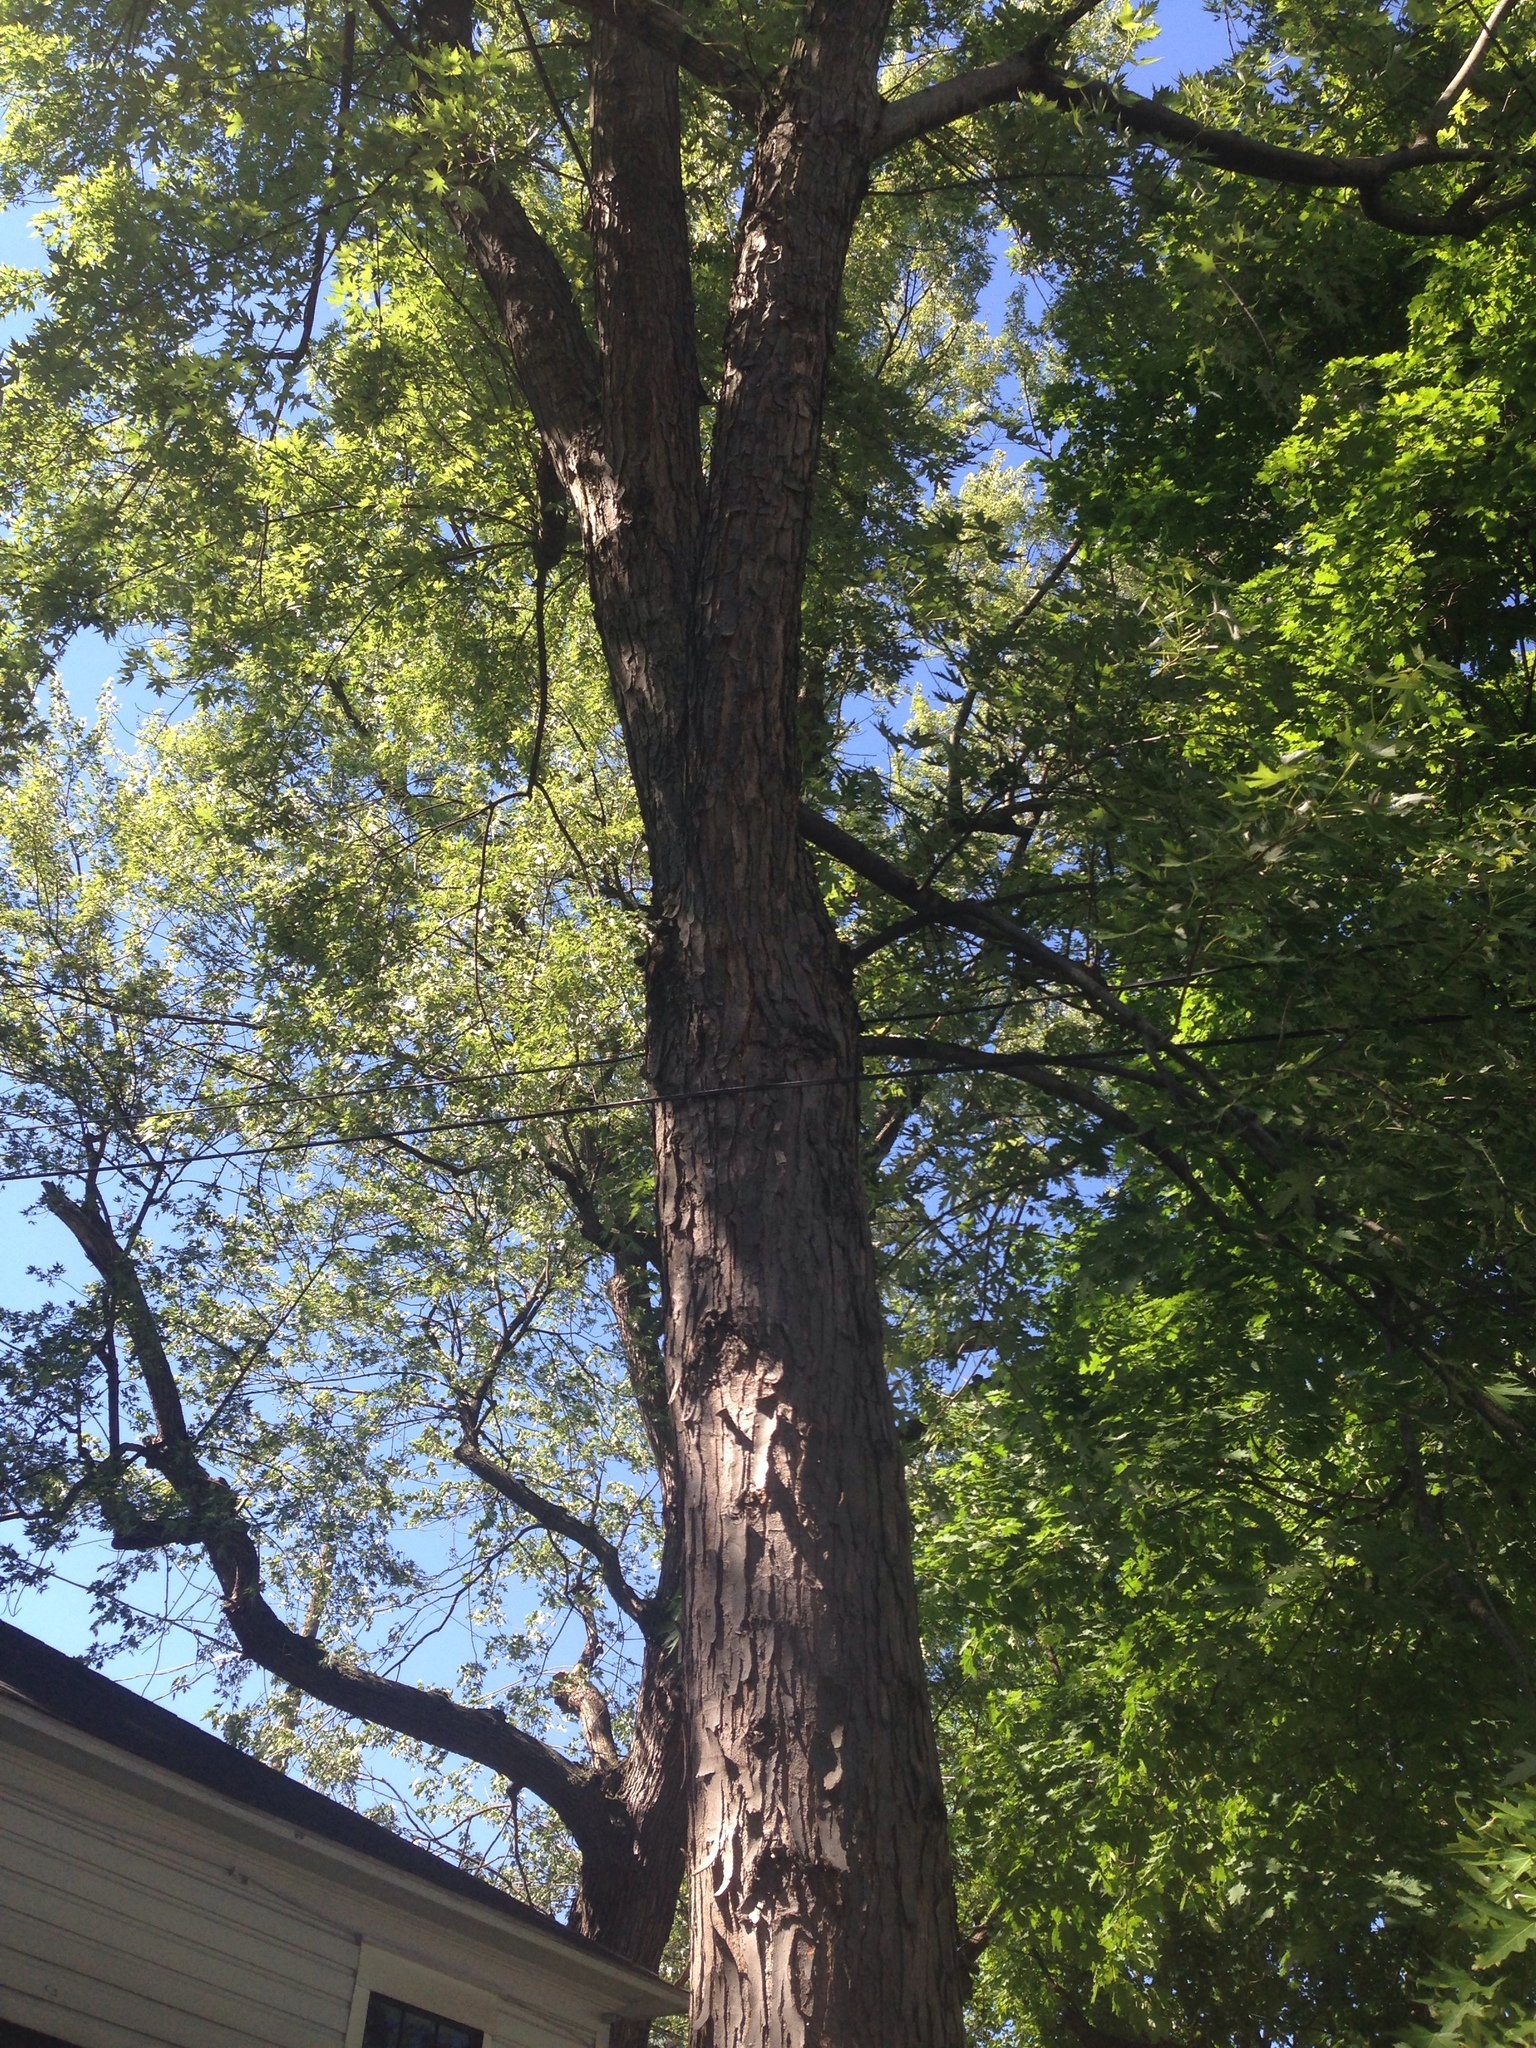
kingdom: Plantae
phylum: Tracheophyta
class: Magnoliopsida
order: Sapindales
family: Sapindaceae
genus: Acer
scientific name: Acer saccharinum
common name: Silver maple
